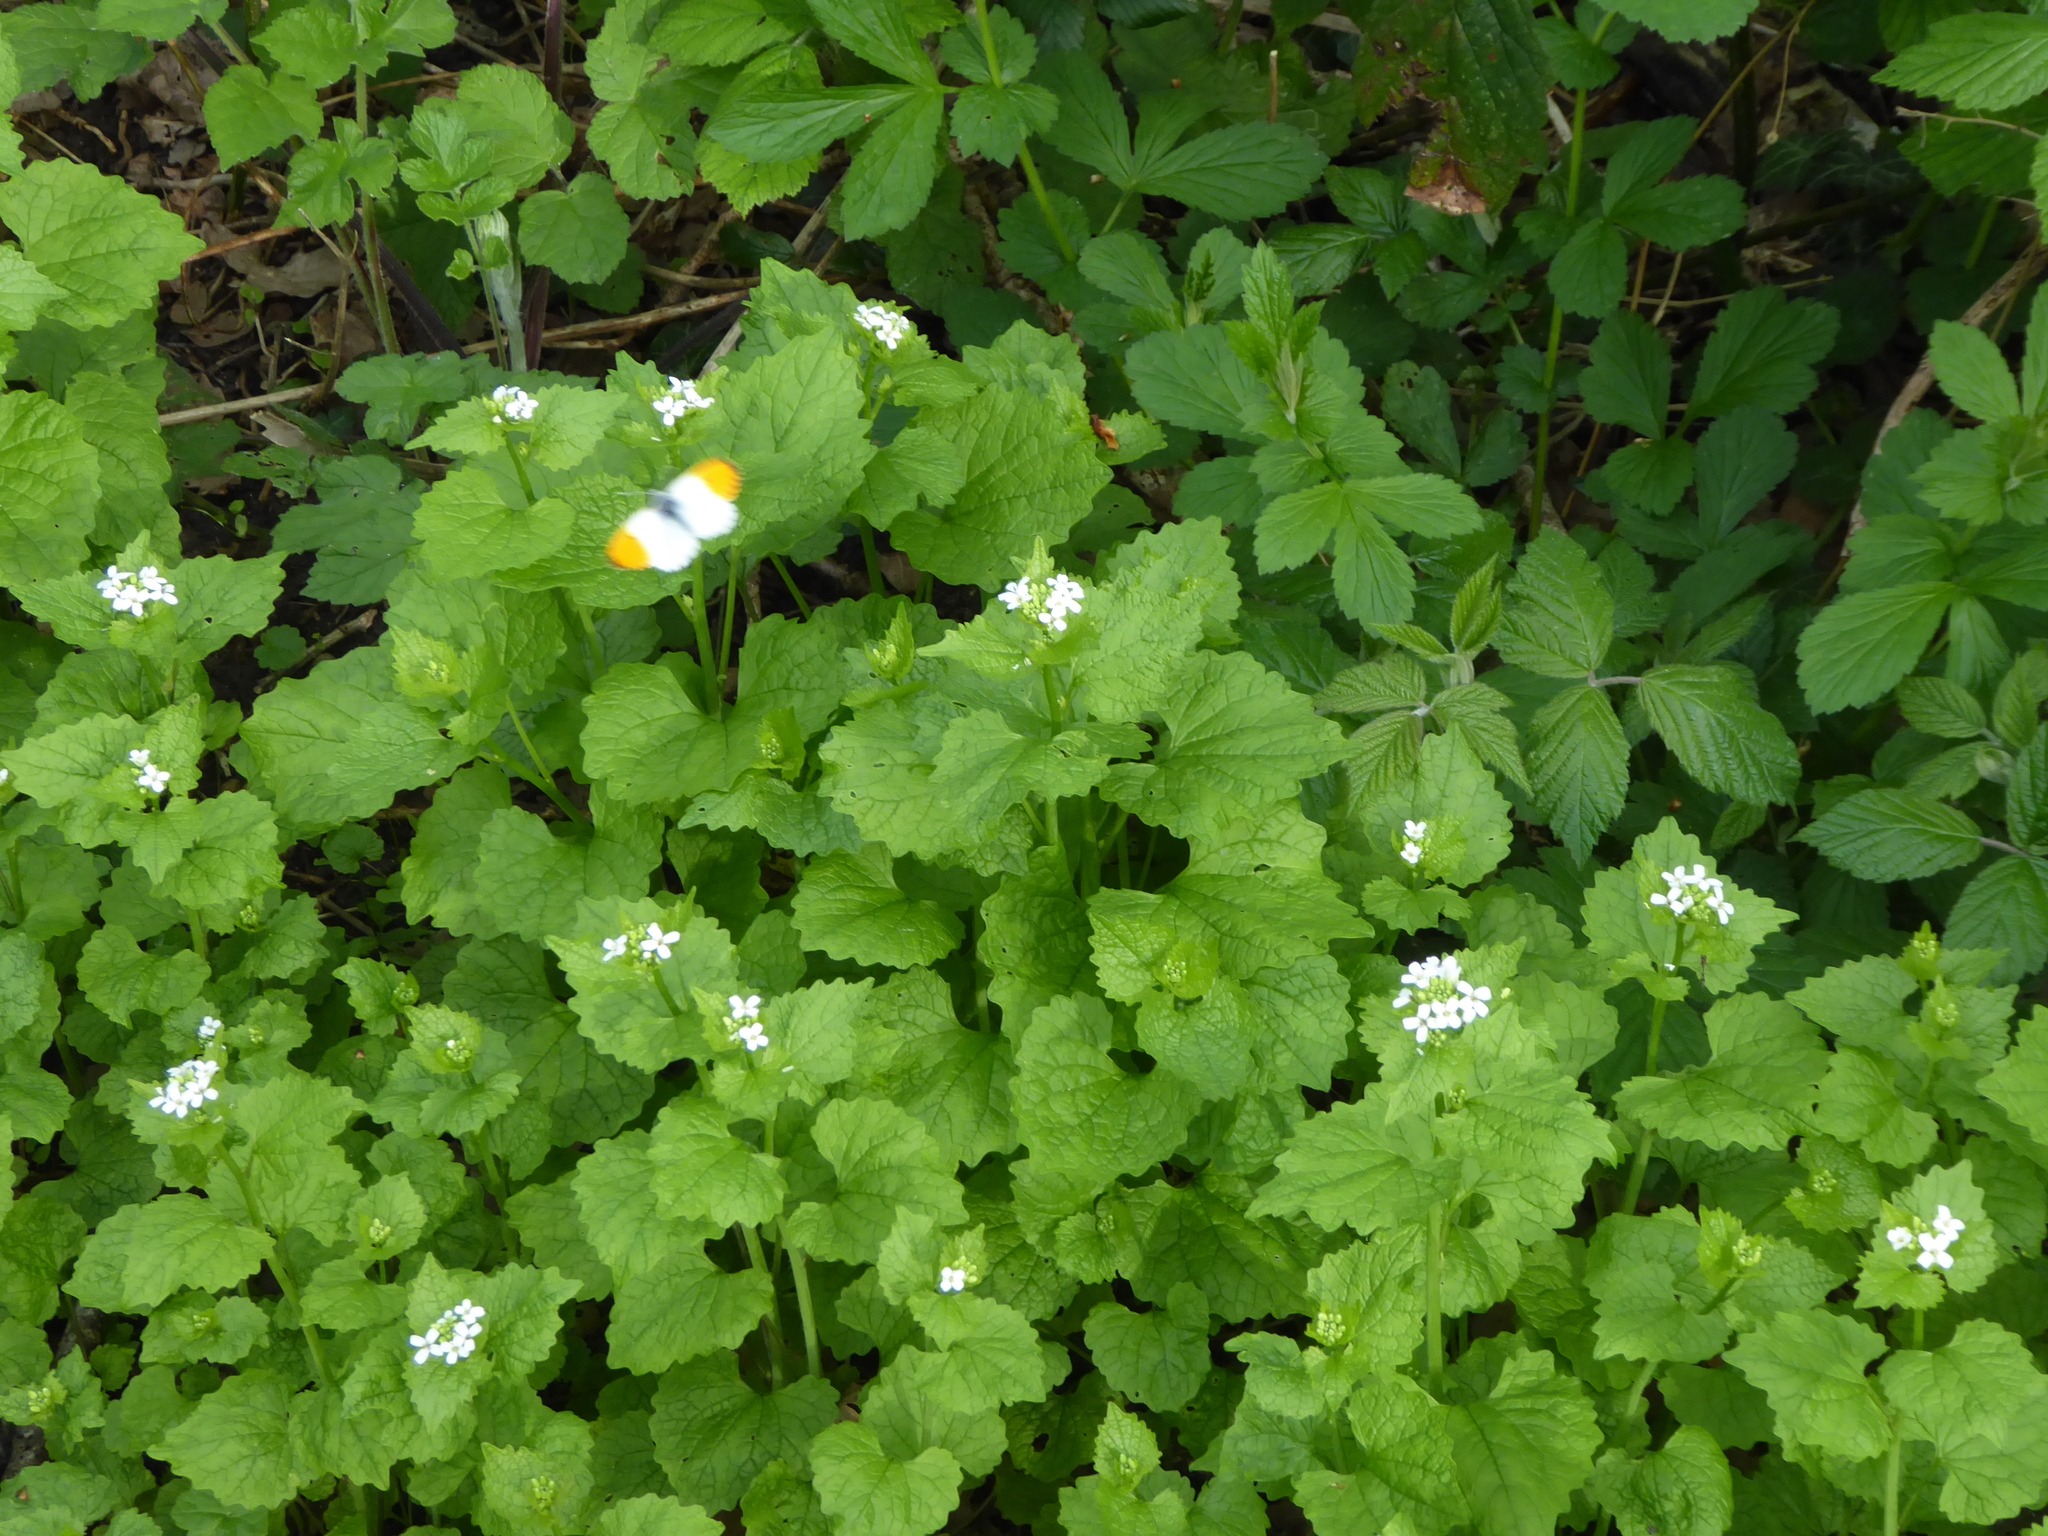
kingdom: Animalia
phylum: Arthropoda
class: Insecta
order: Lepidoptera
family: Pieridae
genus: Anthocharis
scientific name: Anthocharis cardamines
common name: Orange-tip
